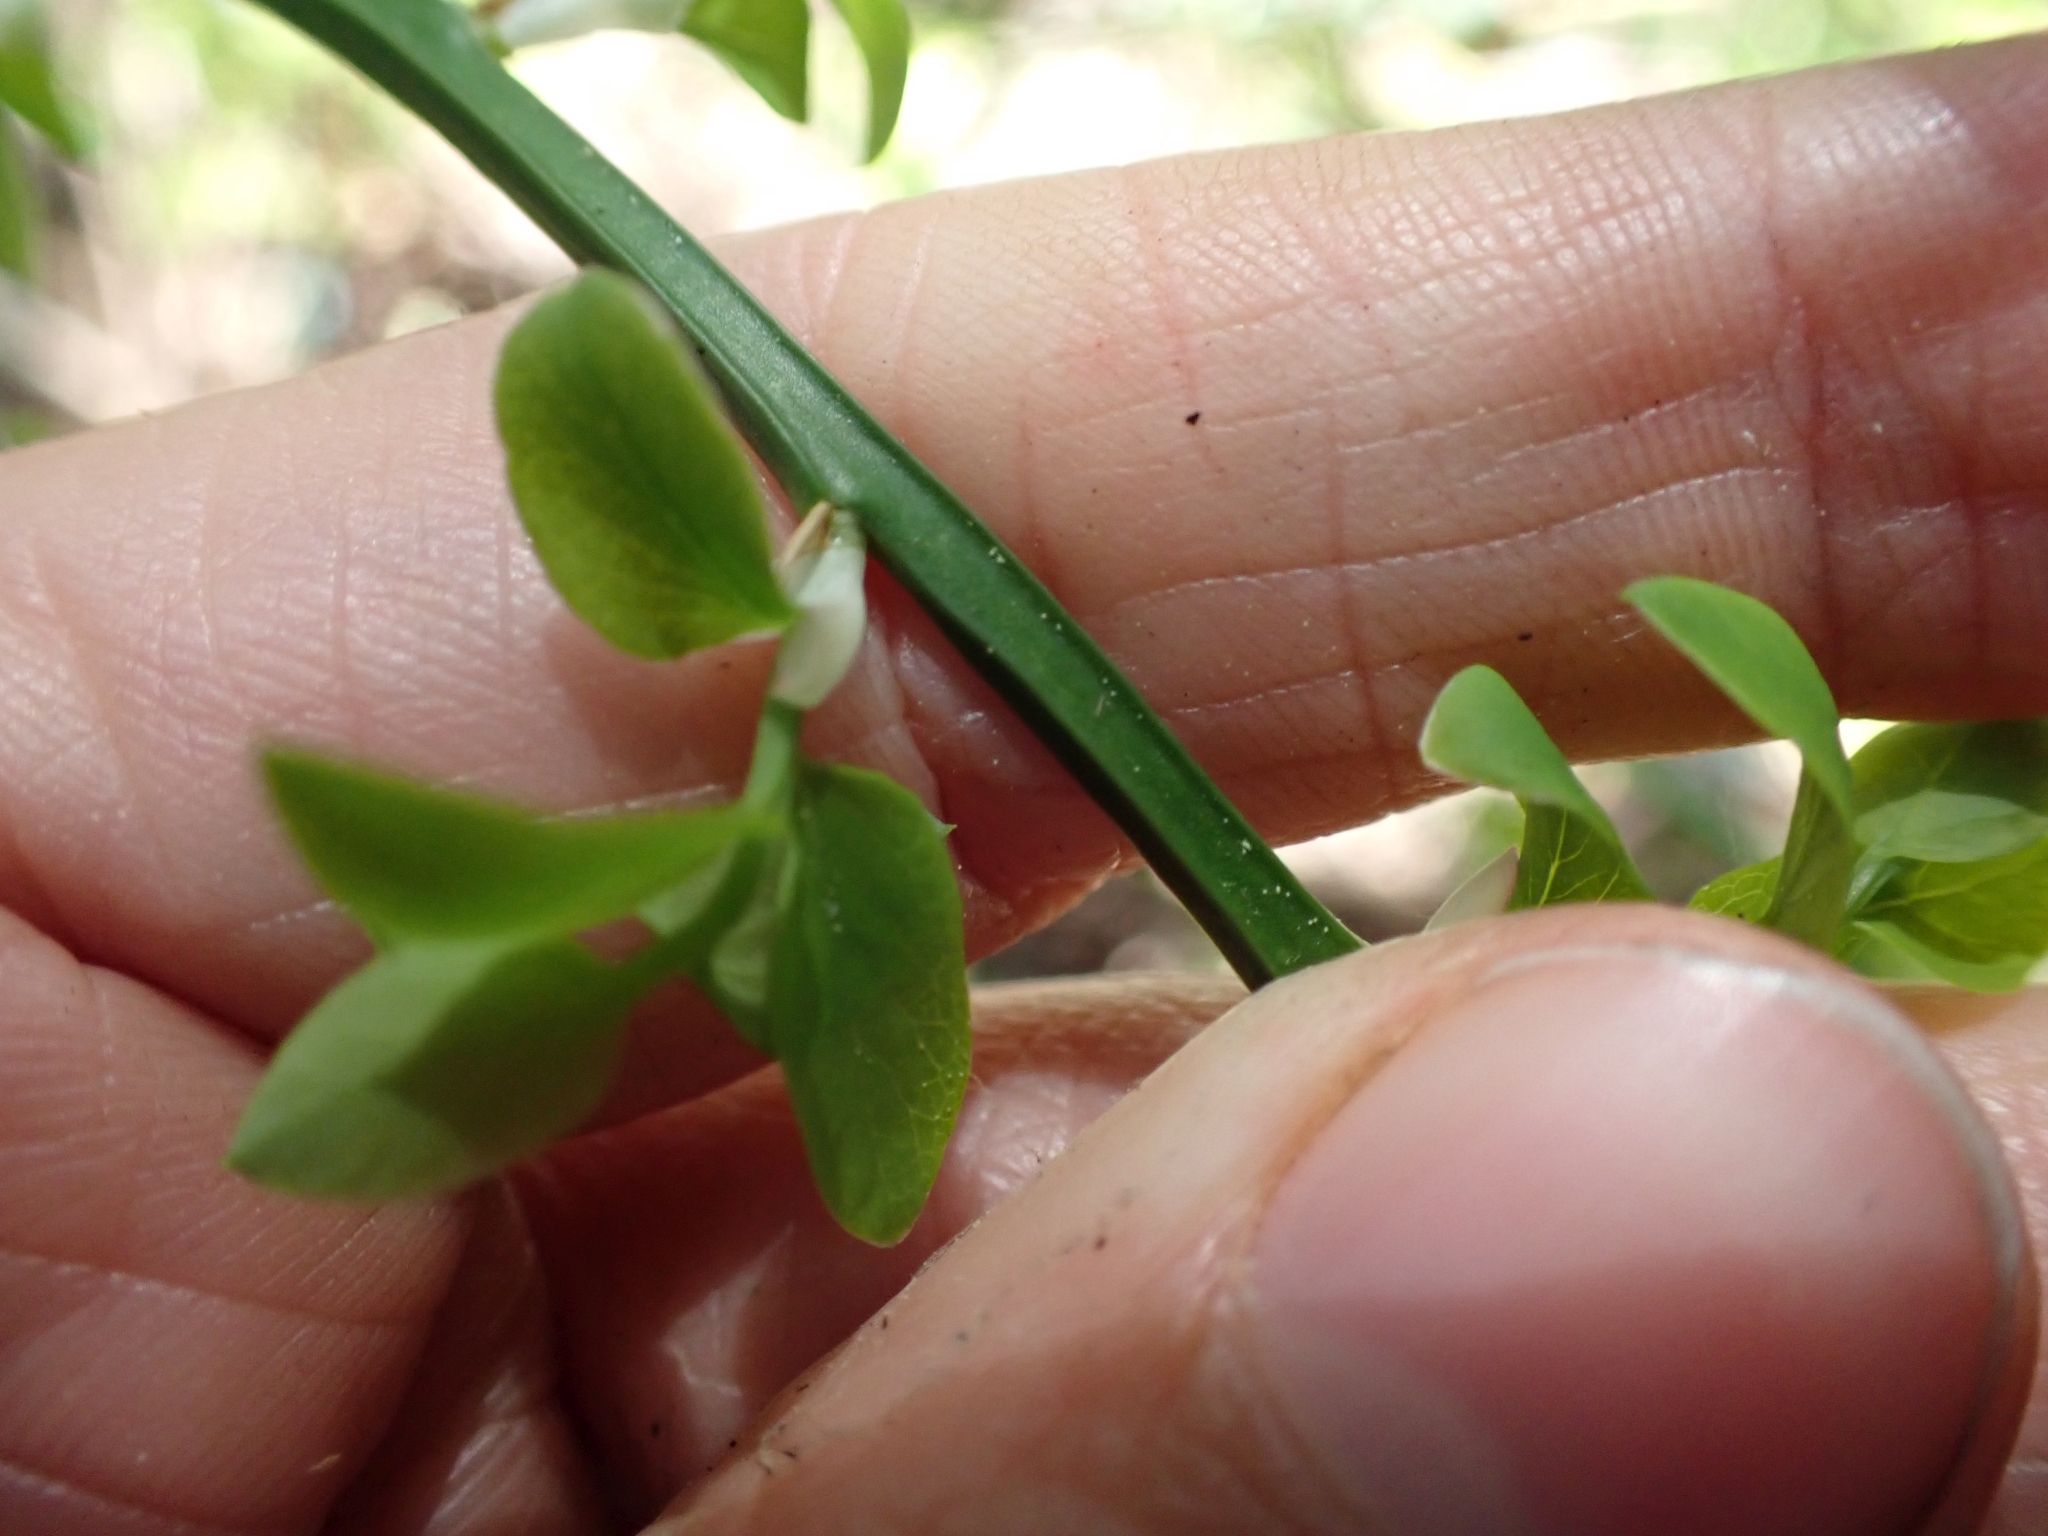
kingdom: Plantae
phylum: Tracheophyta
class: Magnoliopsida
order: Ericales
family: Ericaceae
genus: Vaccinium
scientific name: Vaccinium parvifolium
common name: Red-huckleberry
